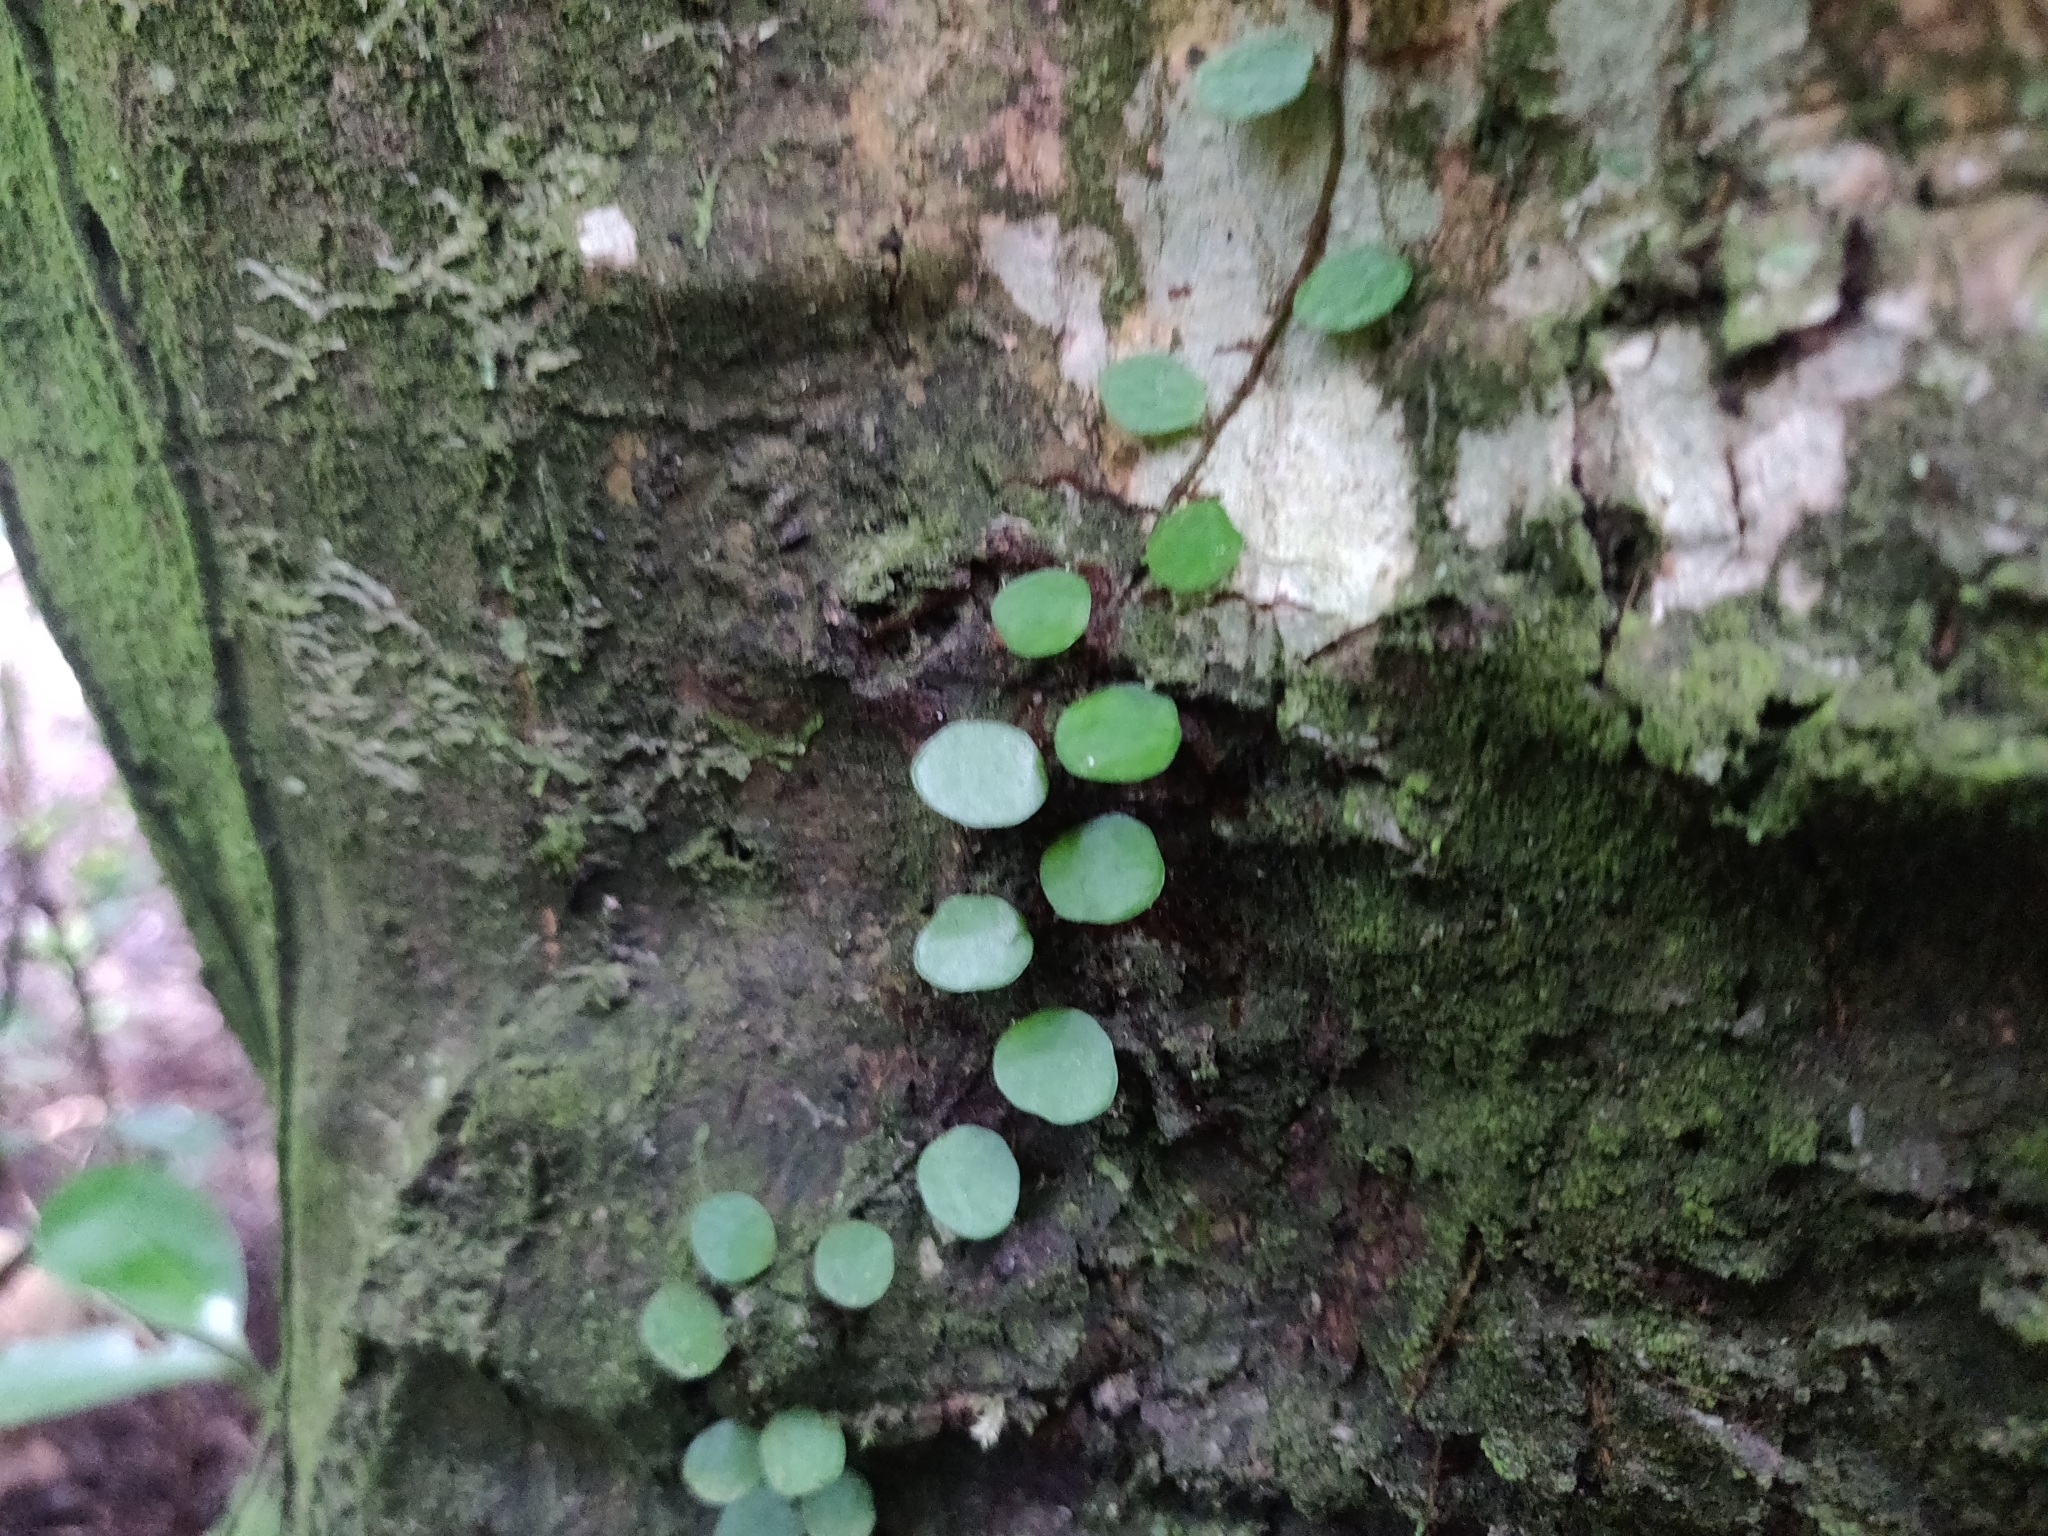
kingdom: Plantae
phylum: Tracheophyta
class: Polypodiopsida
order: Polypodiales
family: Polypodiaceae
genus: Lepisorus
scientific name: Lepisorus microphyllus
